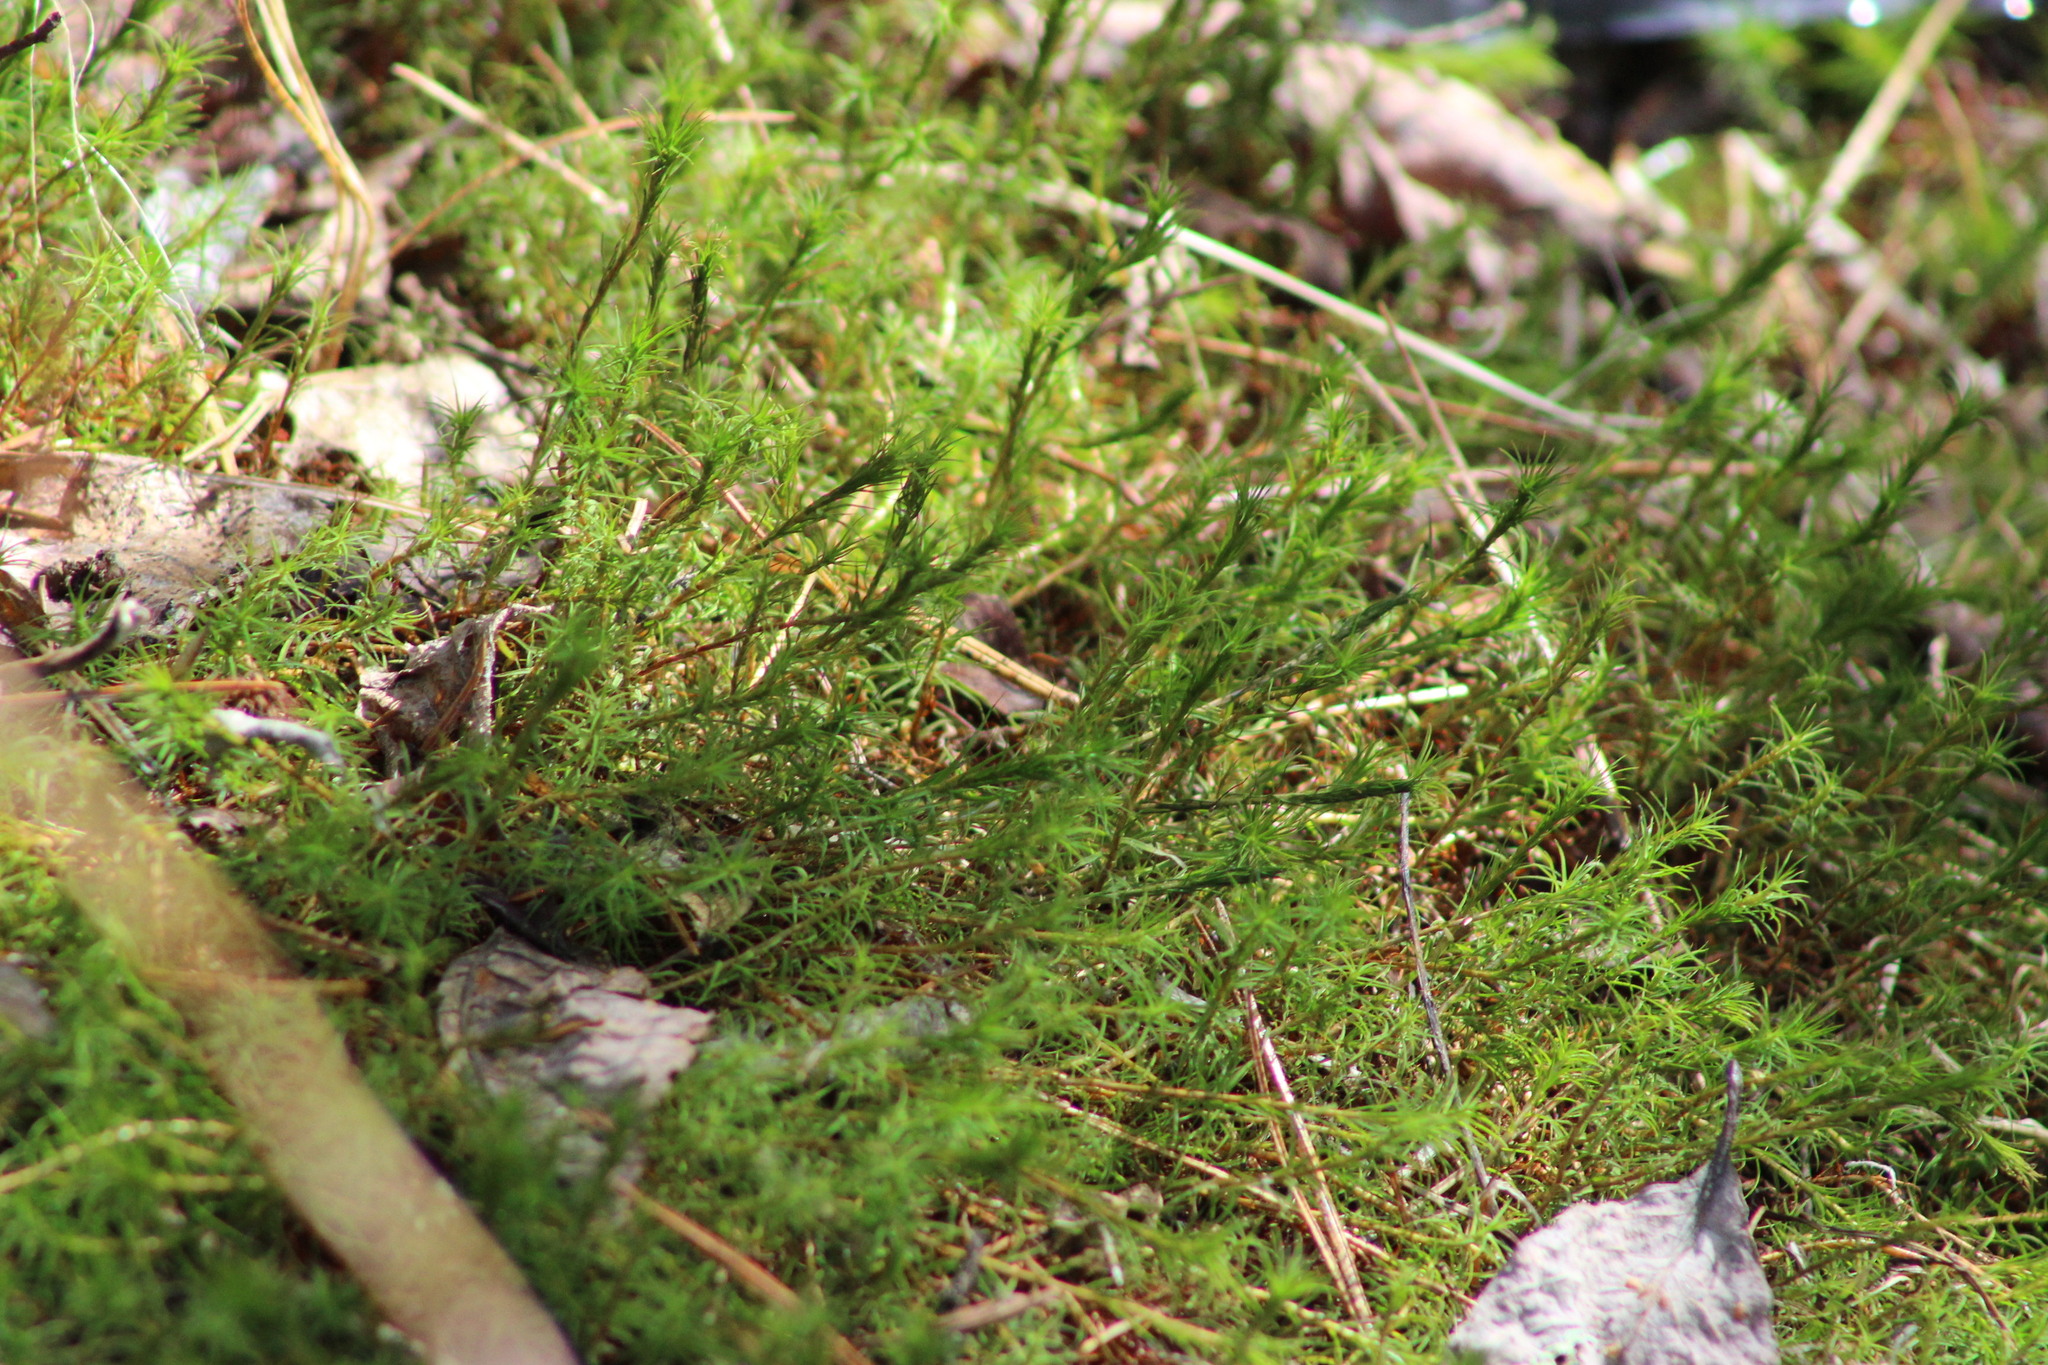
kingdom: Plantae
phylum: Bryophyta
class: Polytrichopsida
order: Polytrichales
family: Polytrichaceae
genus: Polytrichum
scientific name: Polytrichum commune
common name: Common haircap
